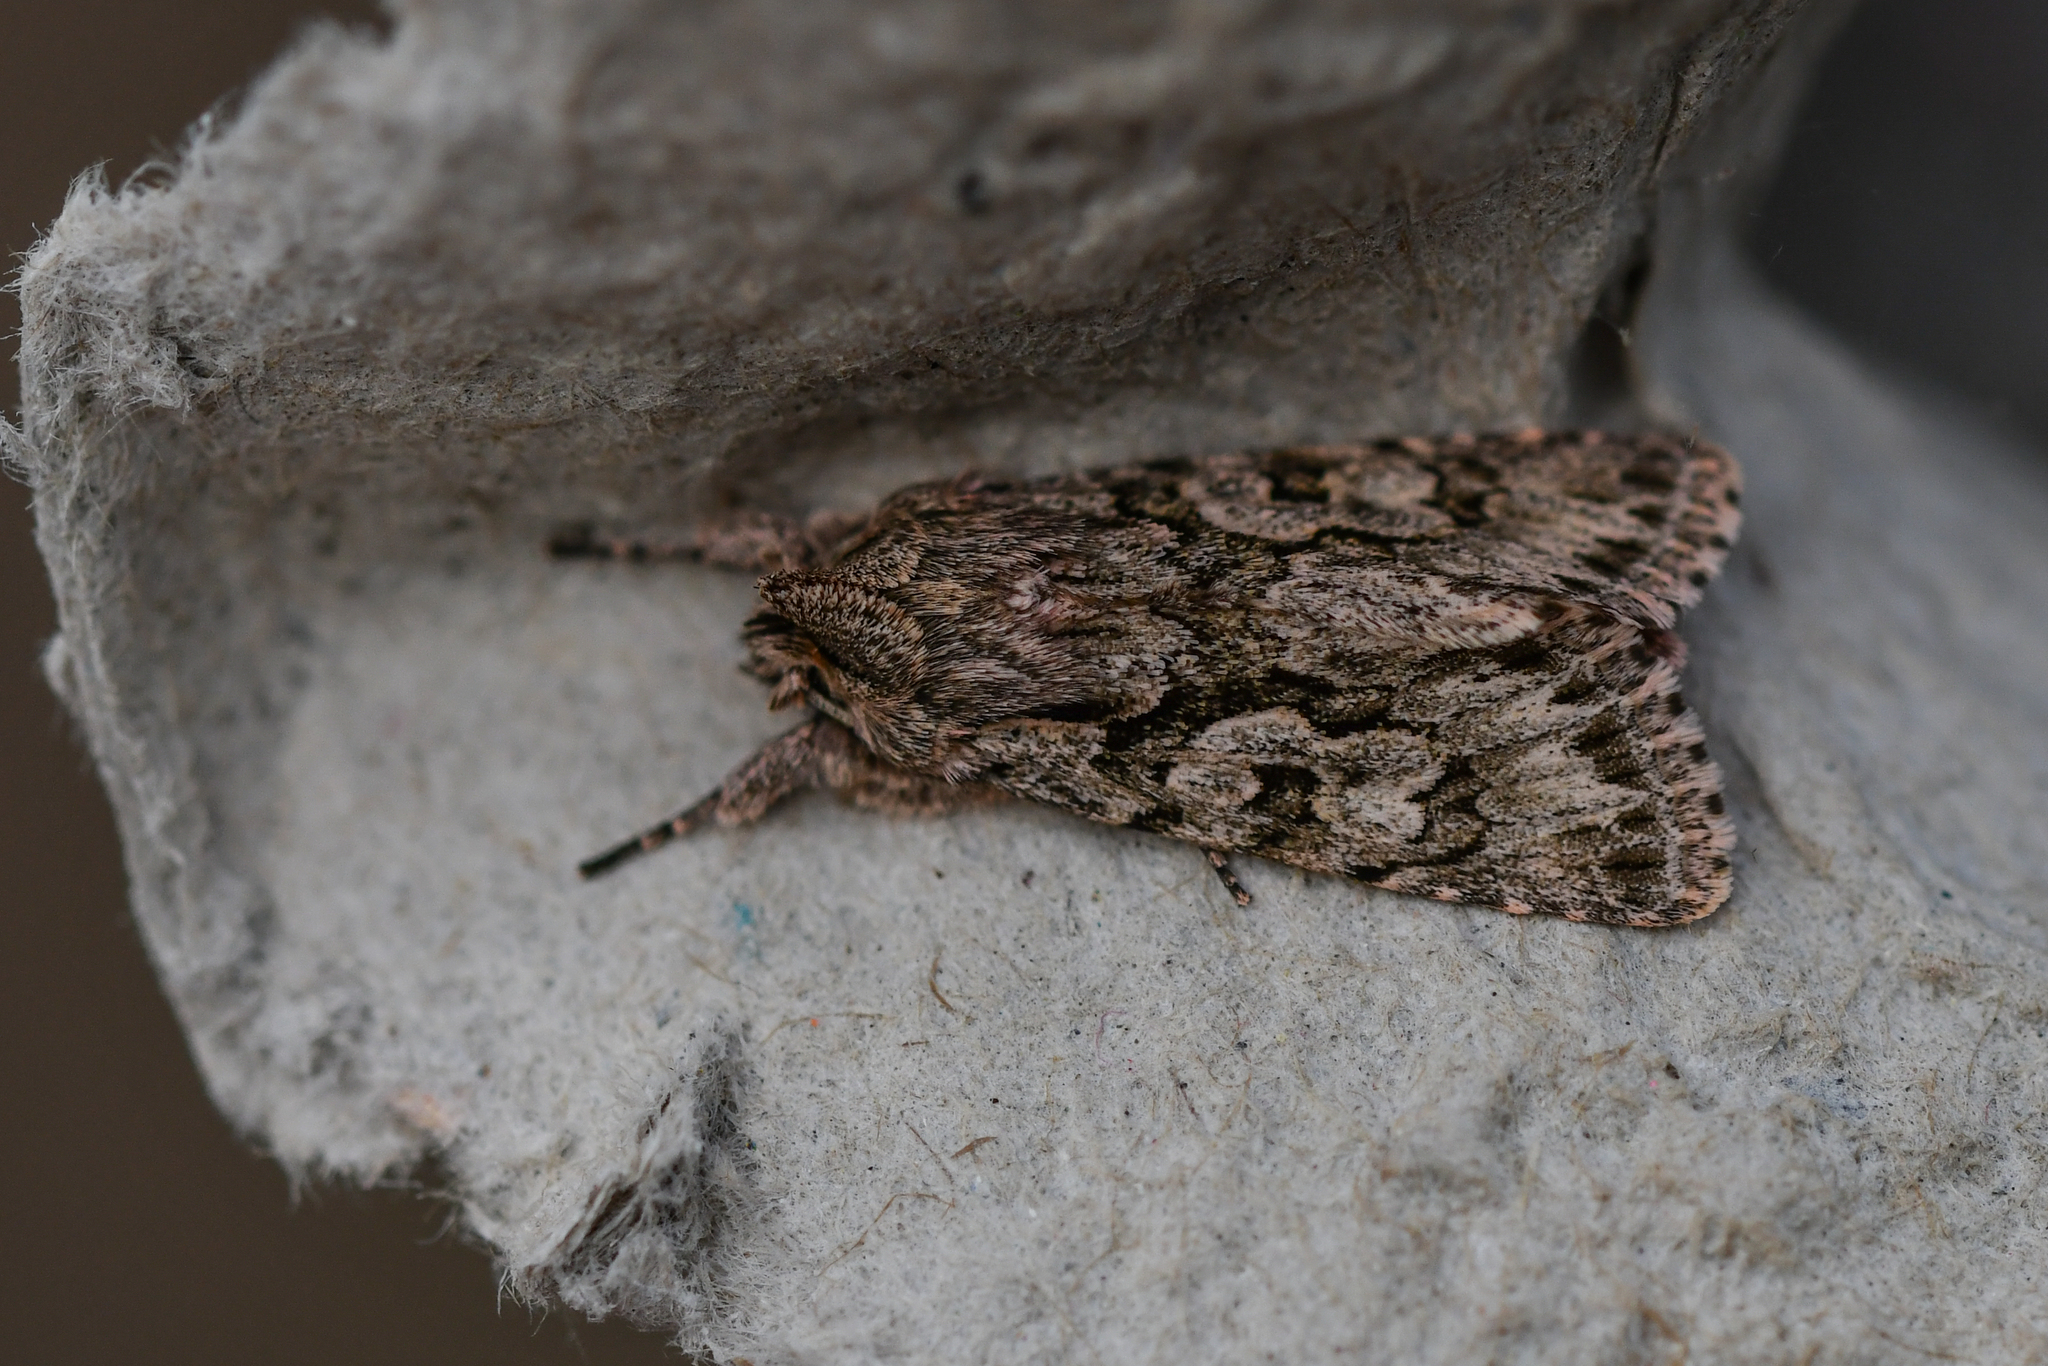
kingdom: Animalia
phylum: Arthropoda
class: Insecta
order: Lepidoptera
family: Noctuidae
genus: Xylocampa
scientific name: Xylocampa areola
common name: Early grey
